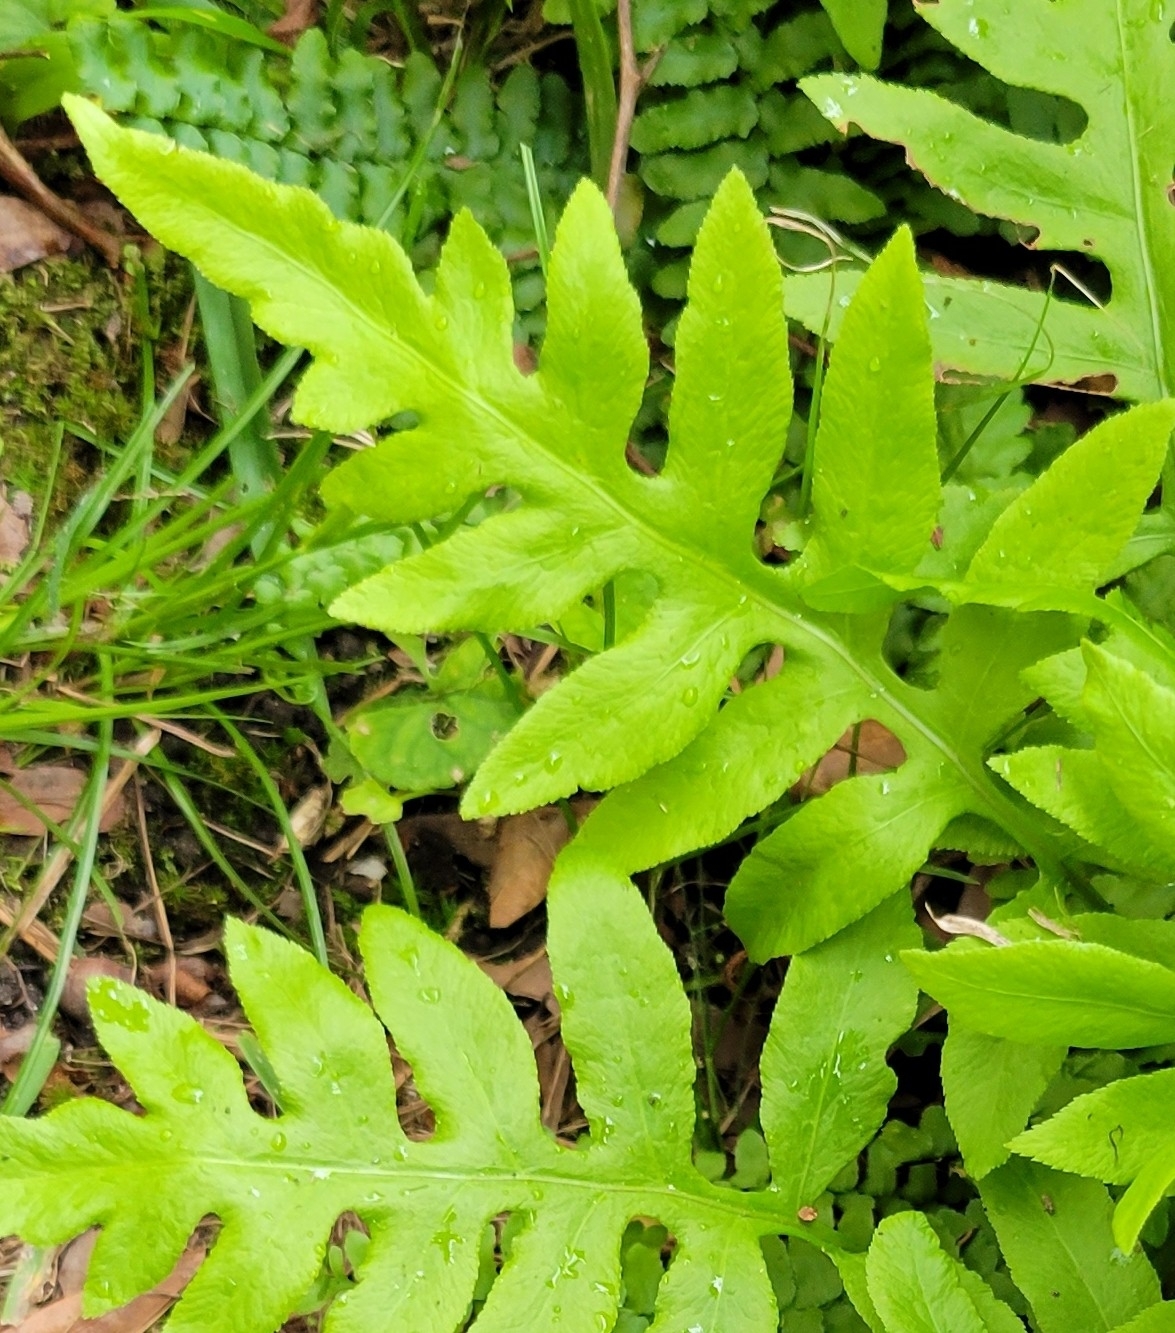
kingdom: Plantae
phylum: Tracheophyta
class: Polypodiopsida
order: Polypodiales
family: Blechnaceae
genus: Lorinseria
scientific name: Lorinseria areolata
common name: Dwarf chain fern
